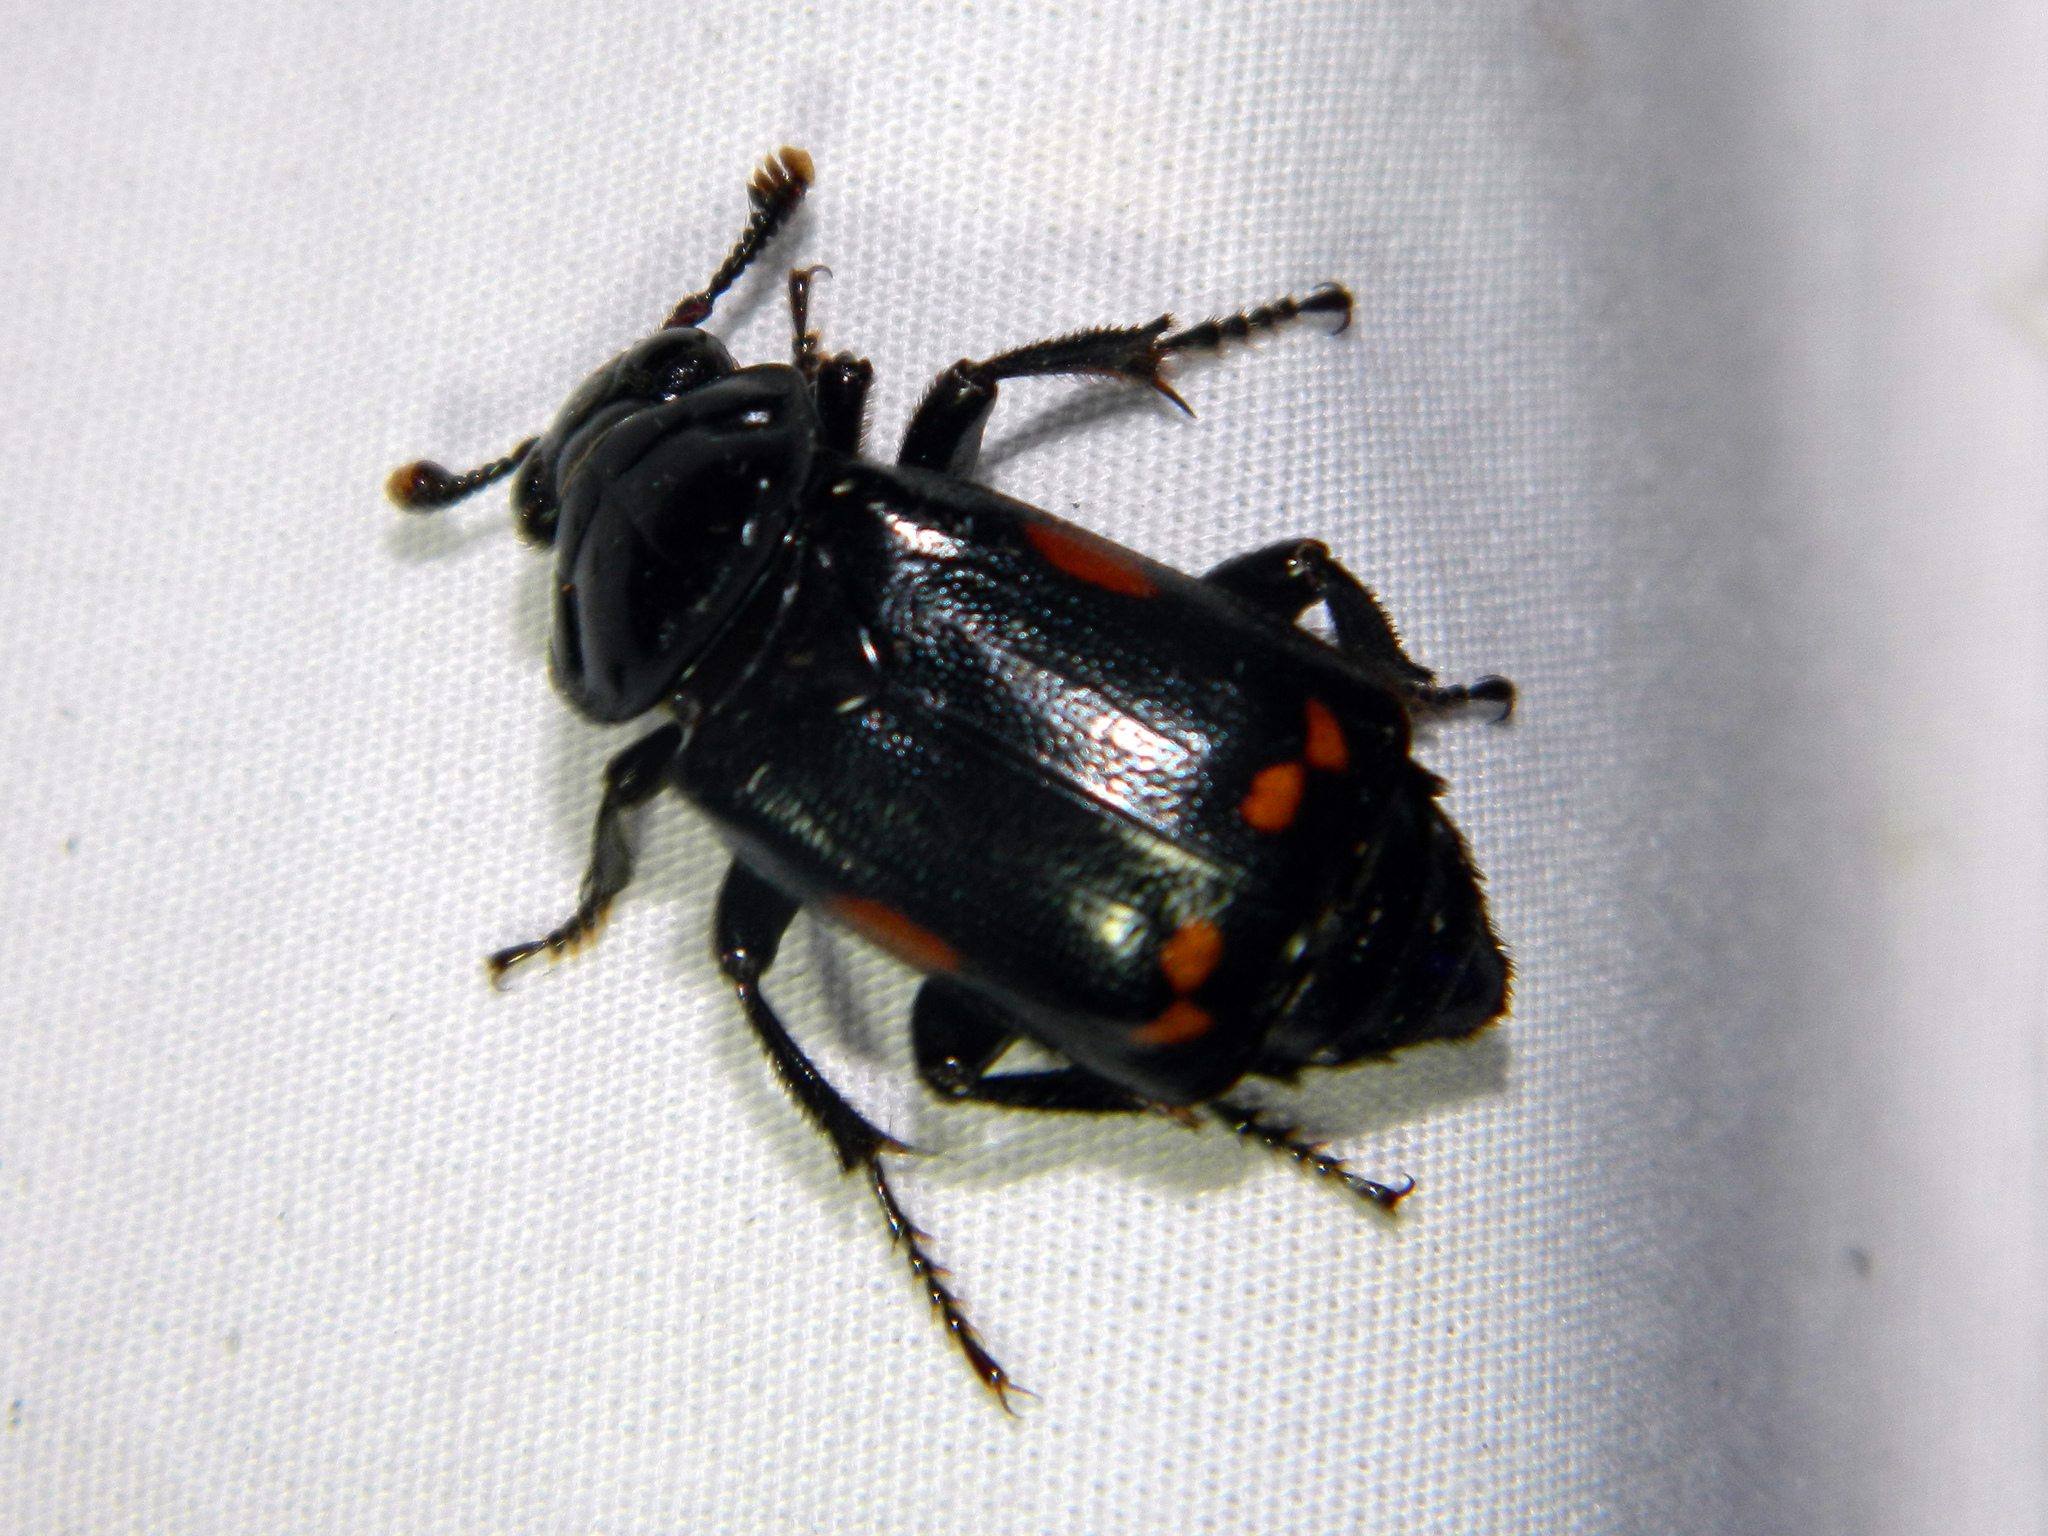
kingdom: Animalia
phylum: Arthropoda
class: Insecta
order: Coleoptera
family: Staphylinidae
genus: Nicrophorus
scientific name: Nicrophorus pustulatus
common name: Pustulated carrion beetle
